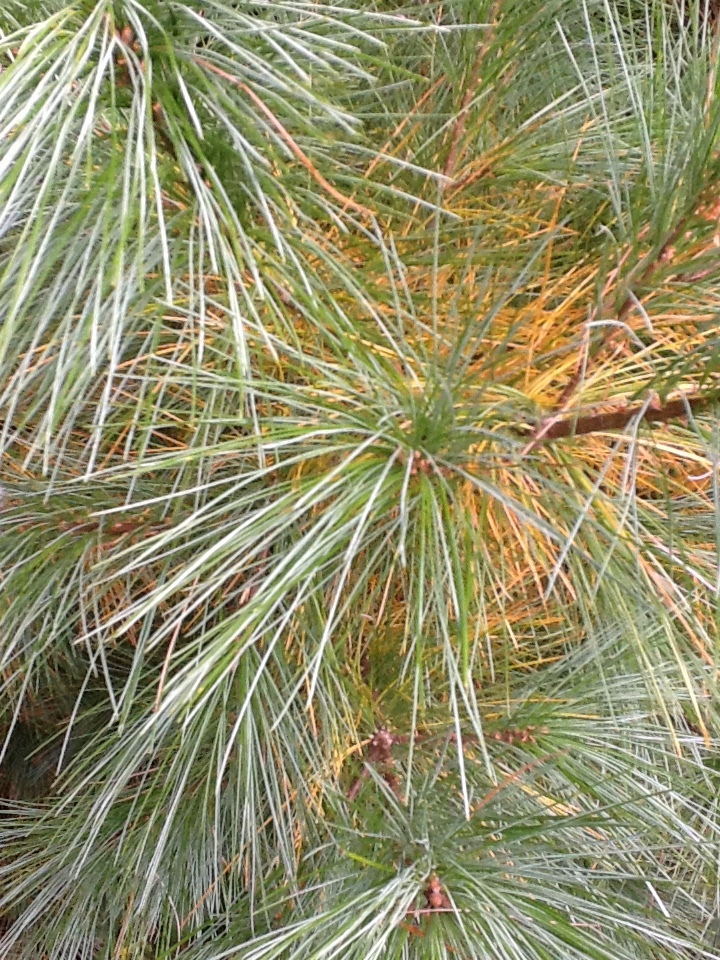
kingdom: Plantae
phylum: Tracheophyta
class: Pinopsida
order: Pinales
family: Pinaceae
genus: Pinus
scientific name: Pinus strobus
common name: Weymouth pine
